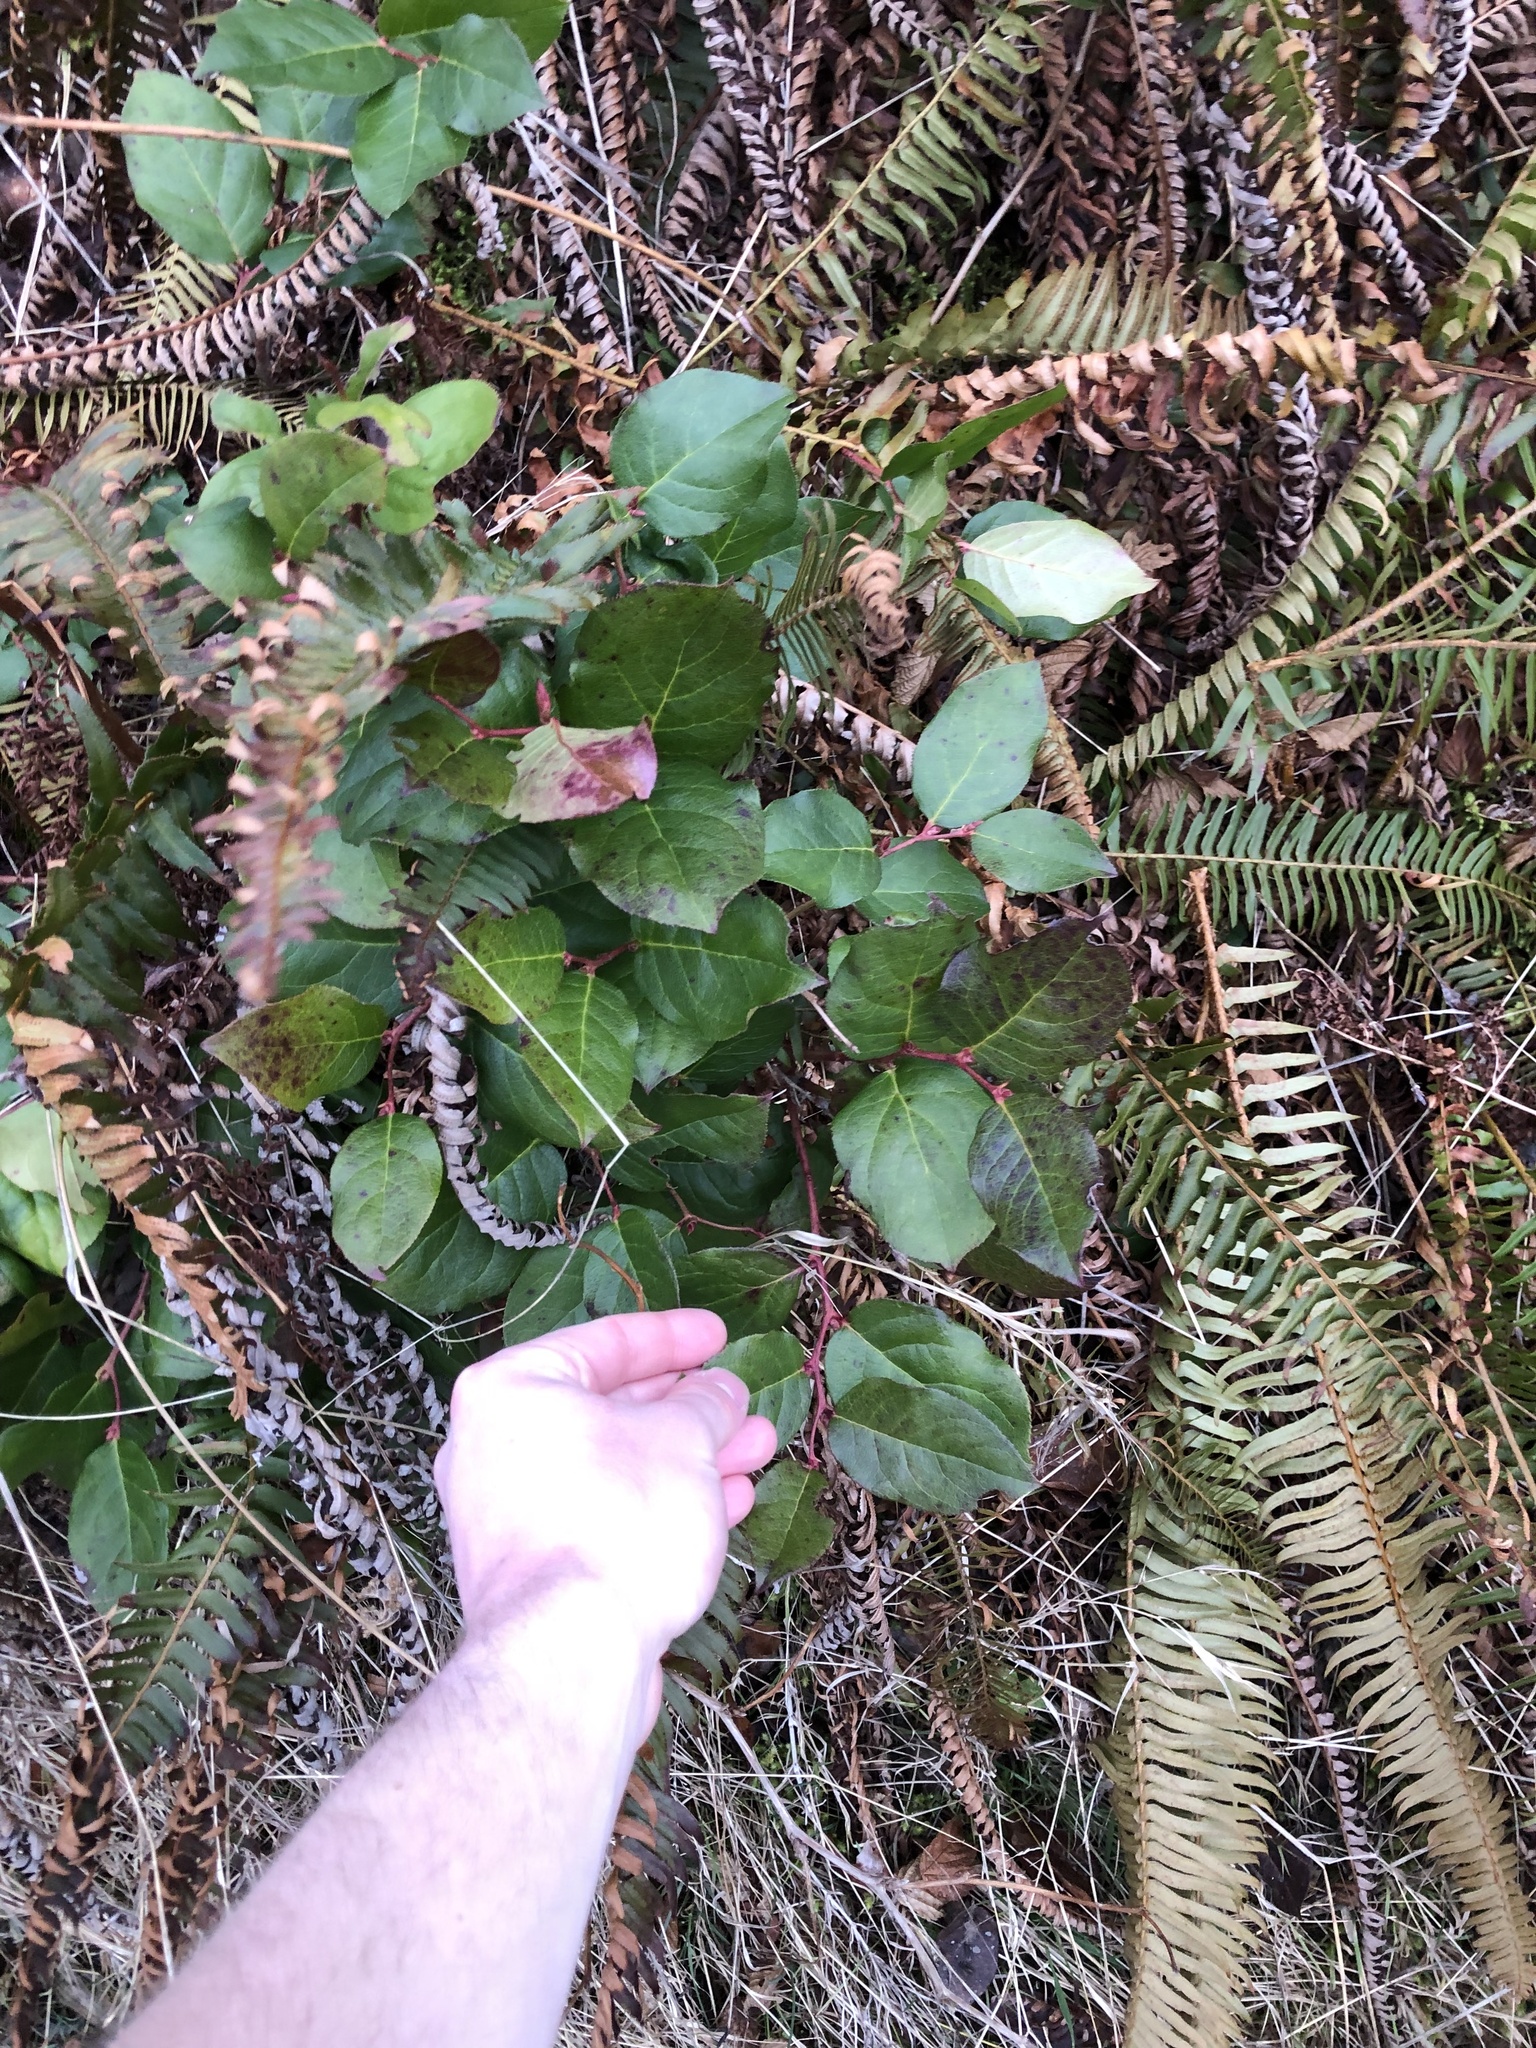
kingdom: Plantae
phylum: Tracheophyta
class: Magnoliopsida
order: Ericales
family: Ericaceae
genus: Gaultheria
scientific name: Gaultheria shallon
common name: Shallon
